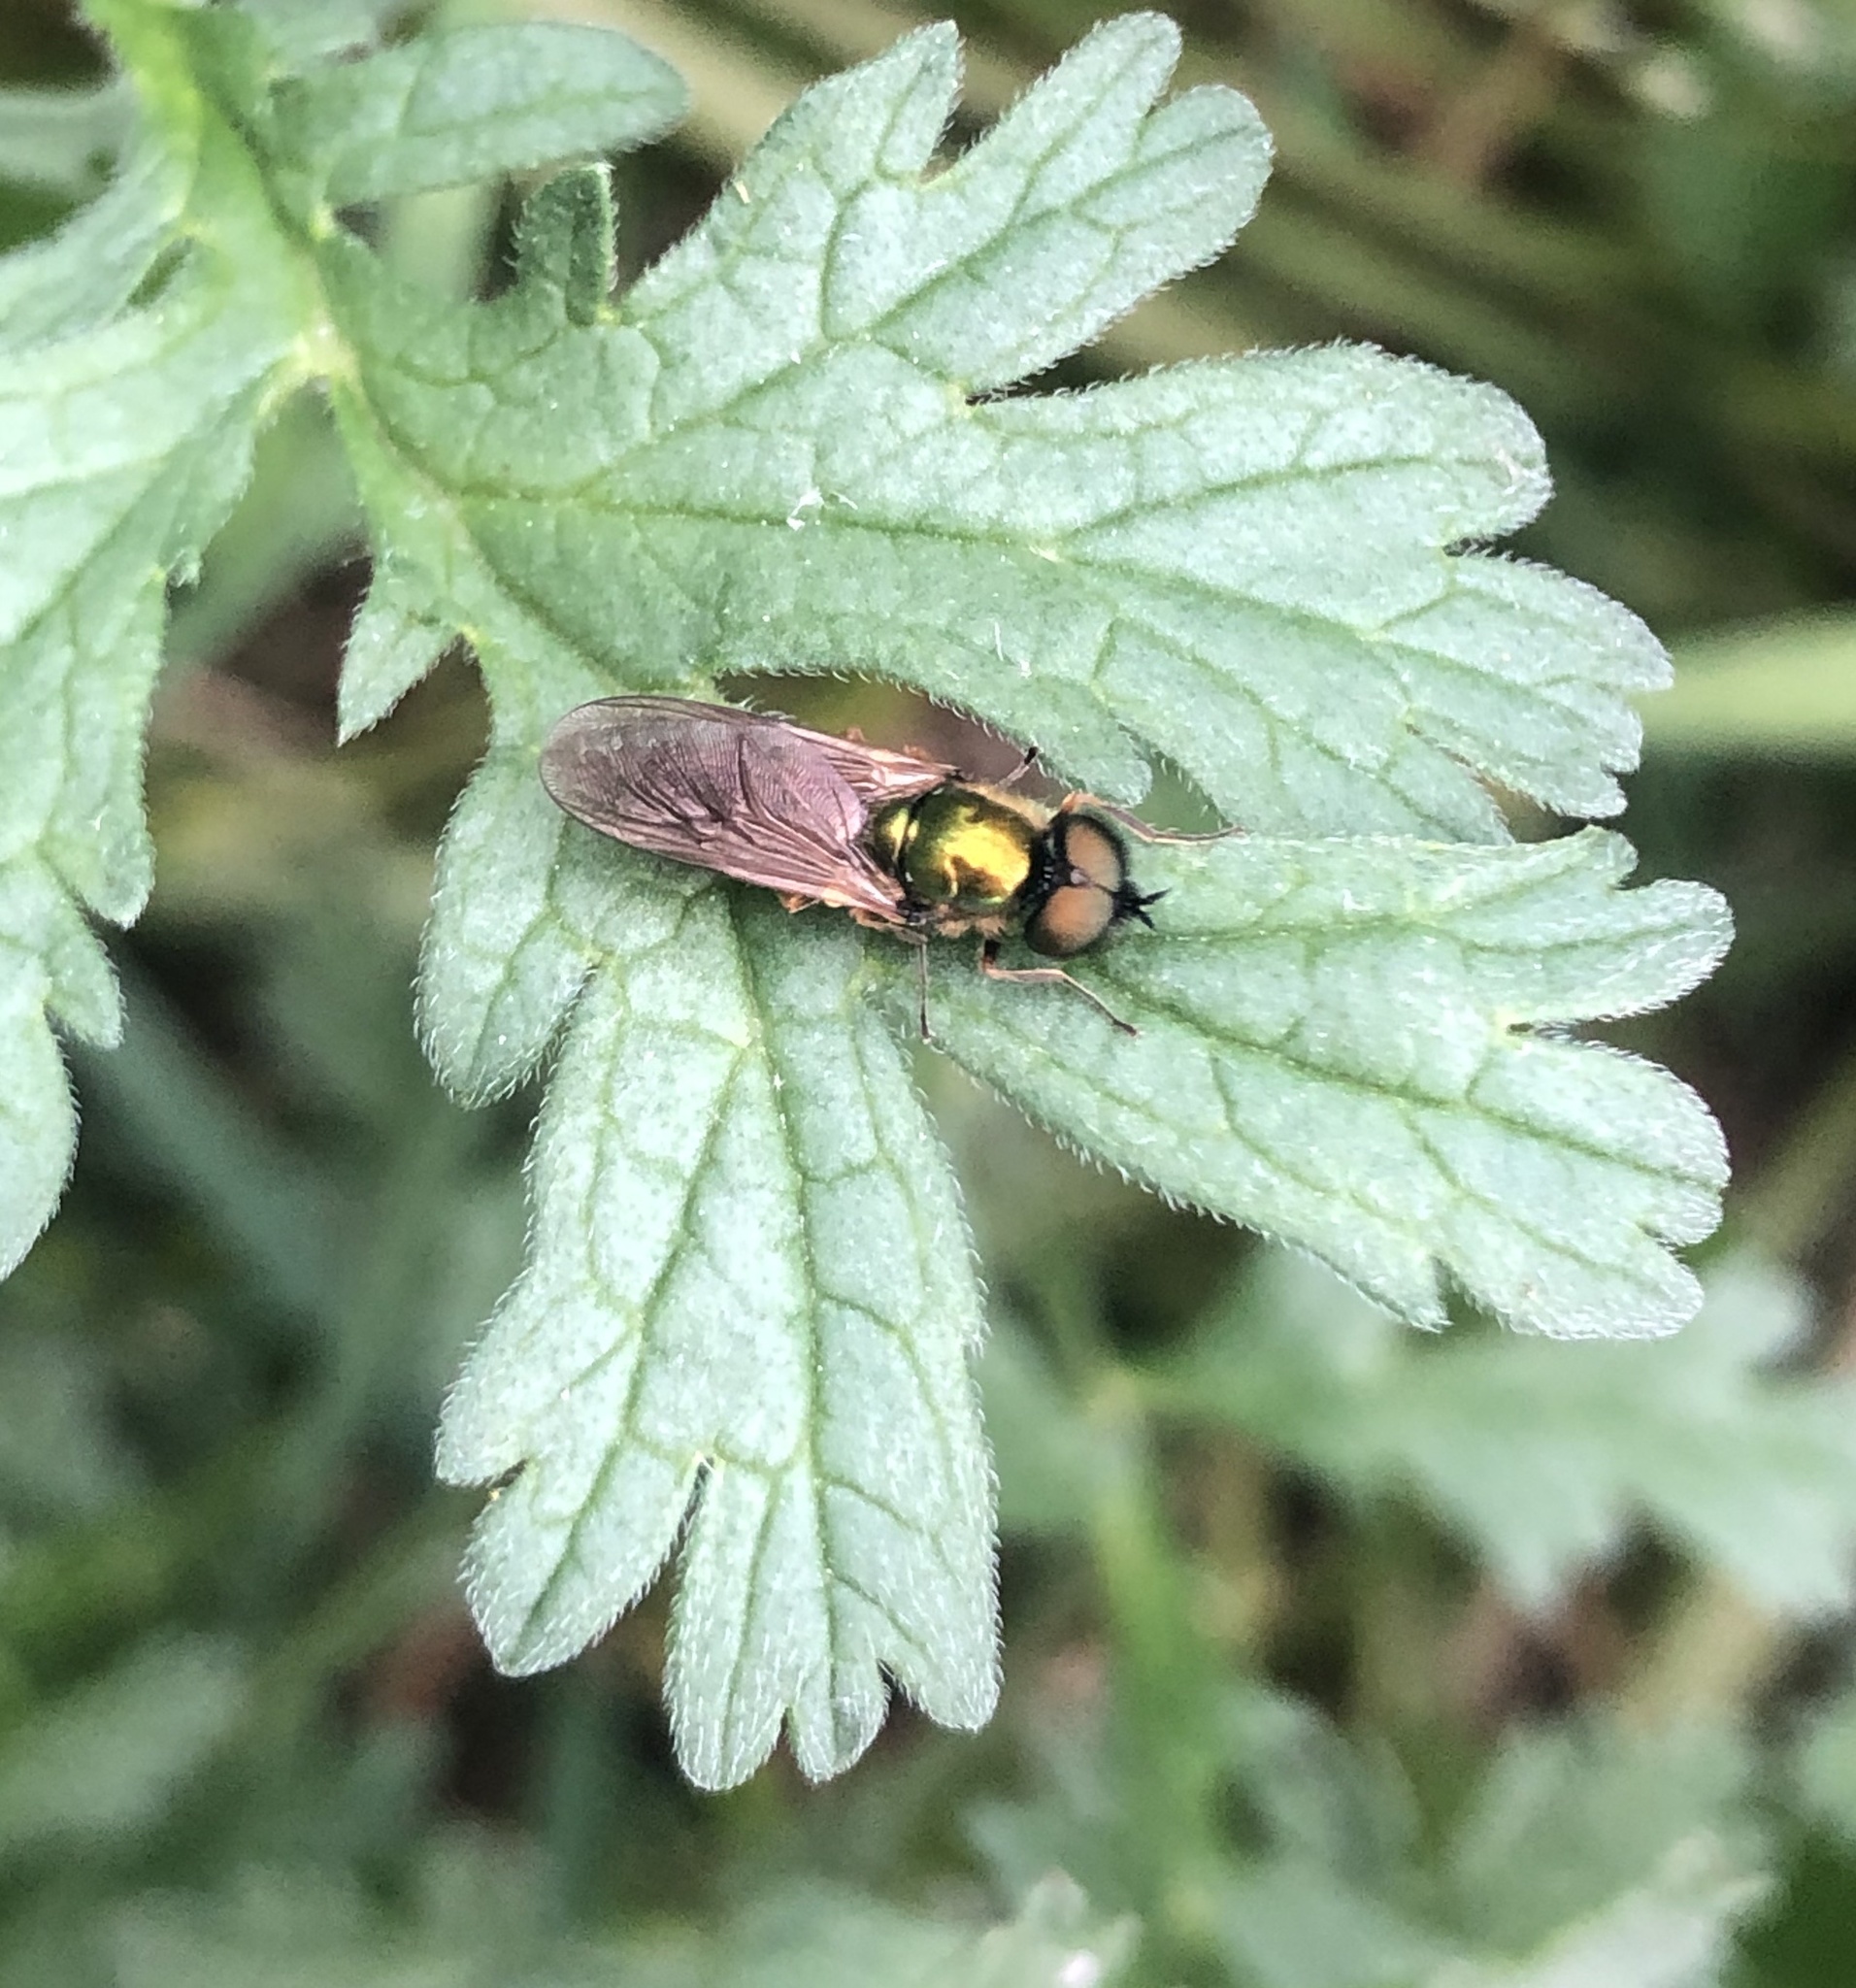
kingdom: Animalia
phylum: Arthropoda
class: Insecta
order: Diptera
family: Stratiomyidae
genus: Chloromyia
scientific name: Chloromyia formosa
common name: Soldier fly
